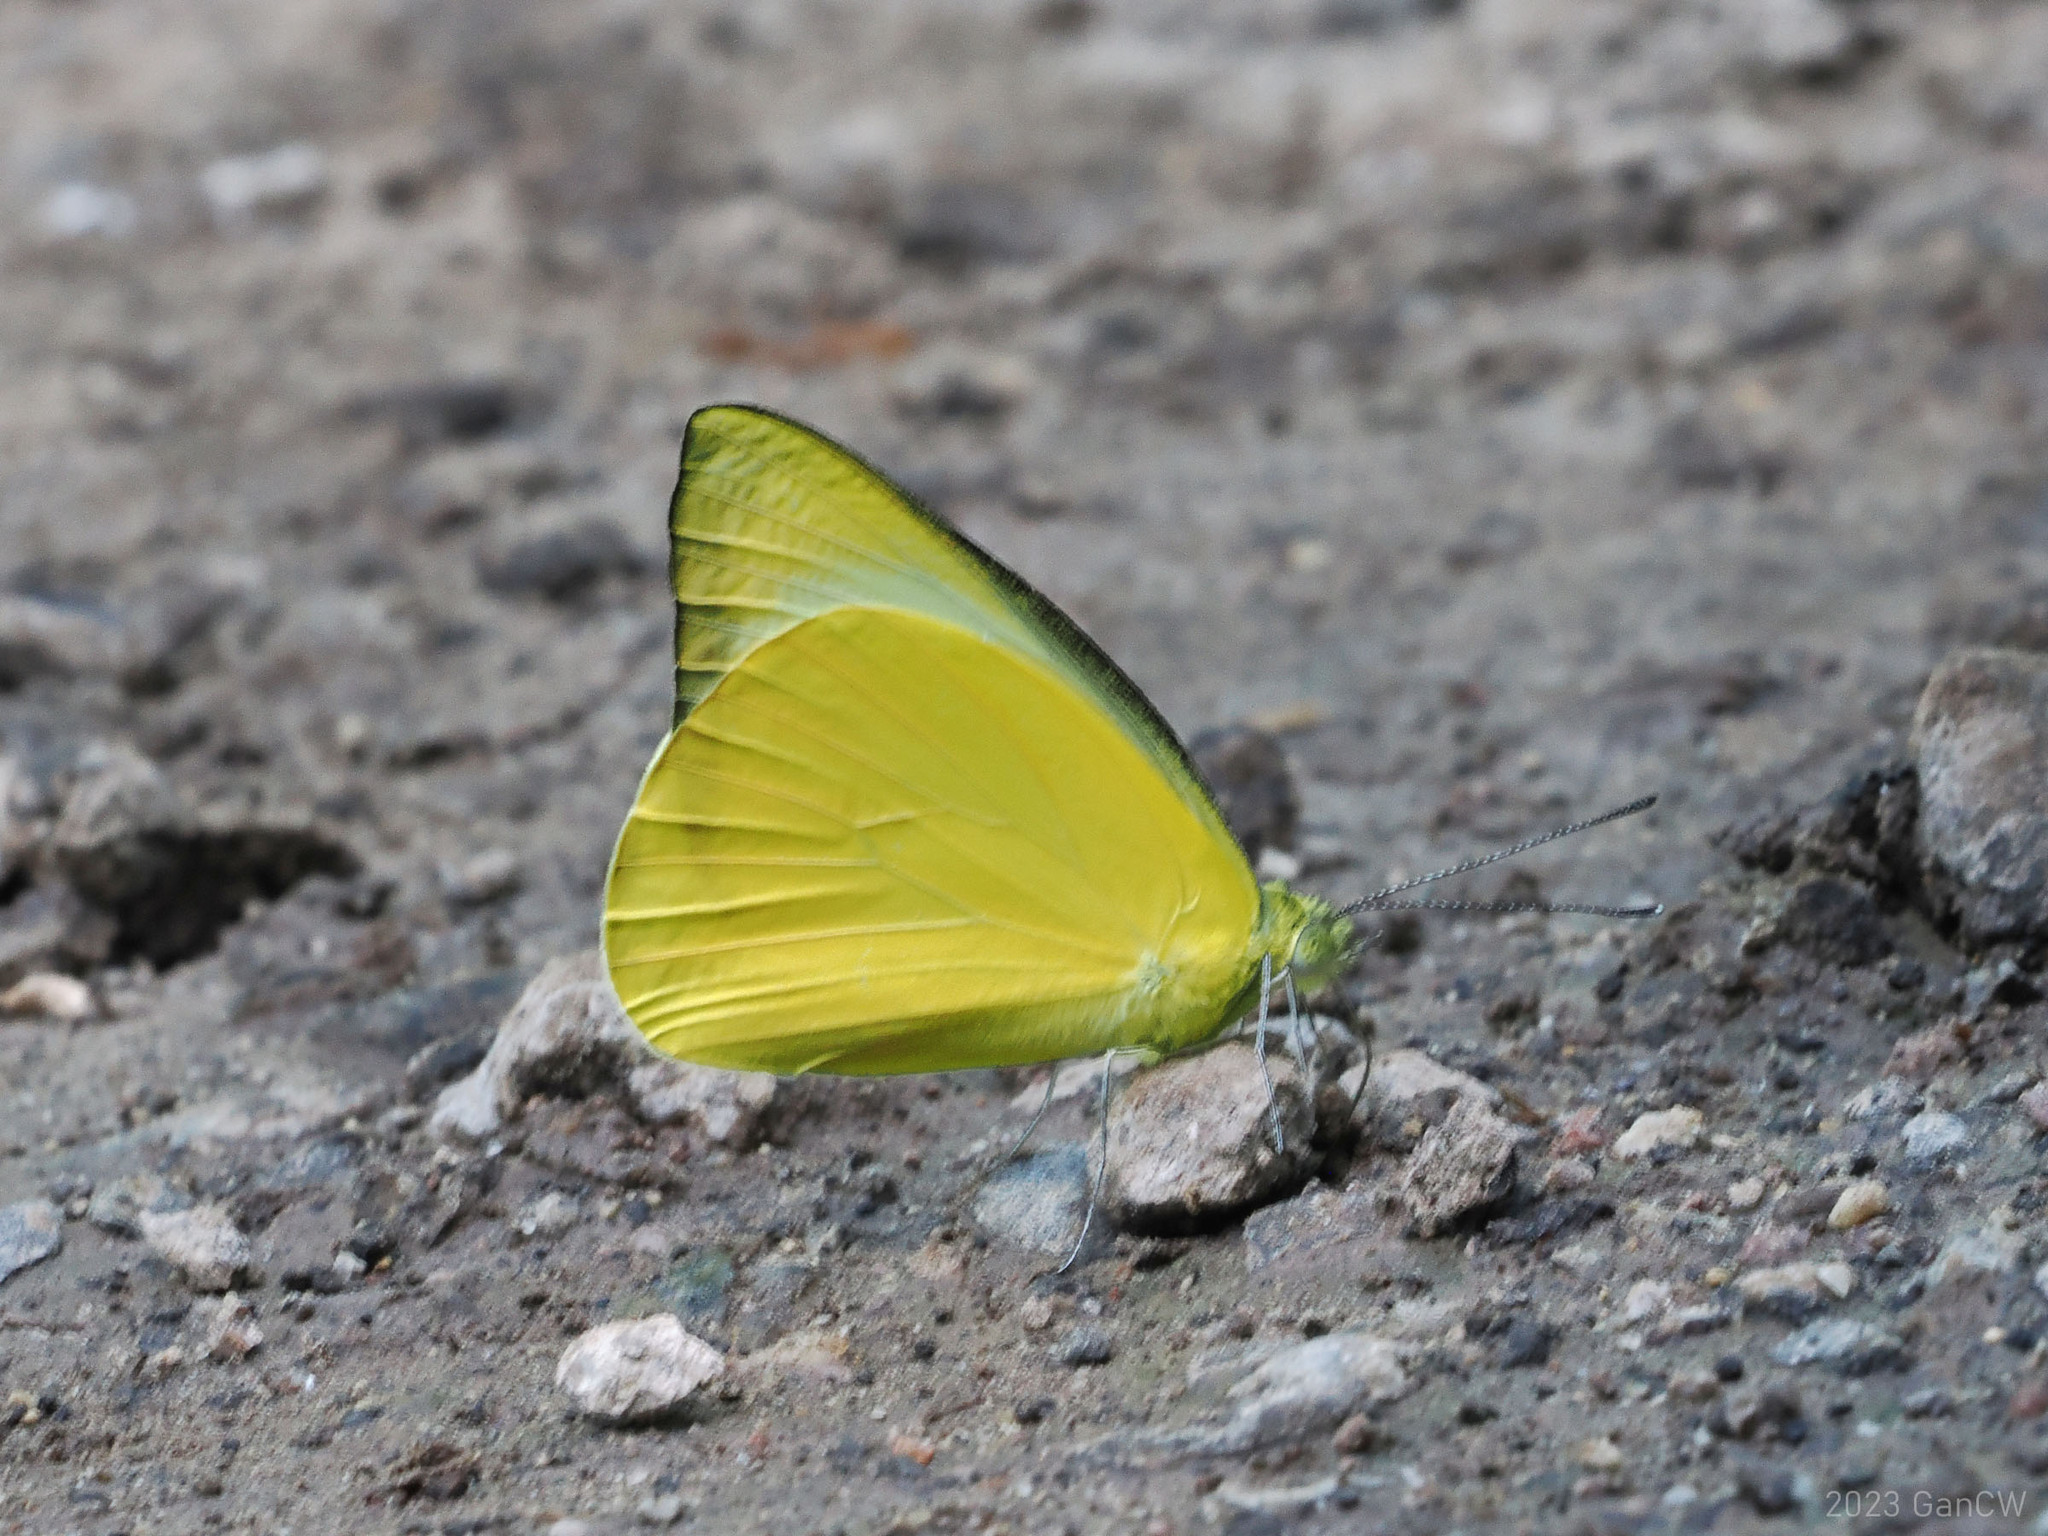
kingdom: Animalia
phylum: Arthropoda
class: Insecta
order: Lepidoptera
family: Pieridae
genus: Saletara
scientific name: Saletara panda
